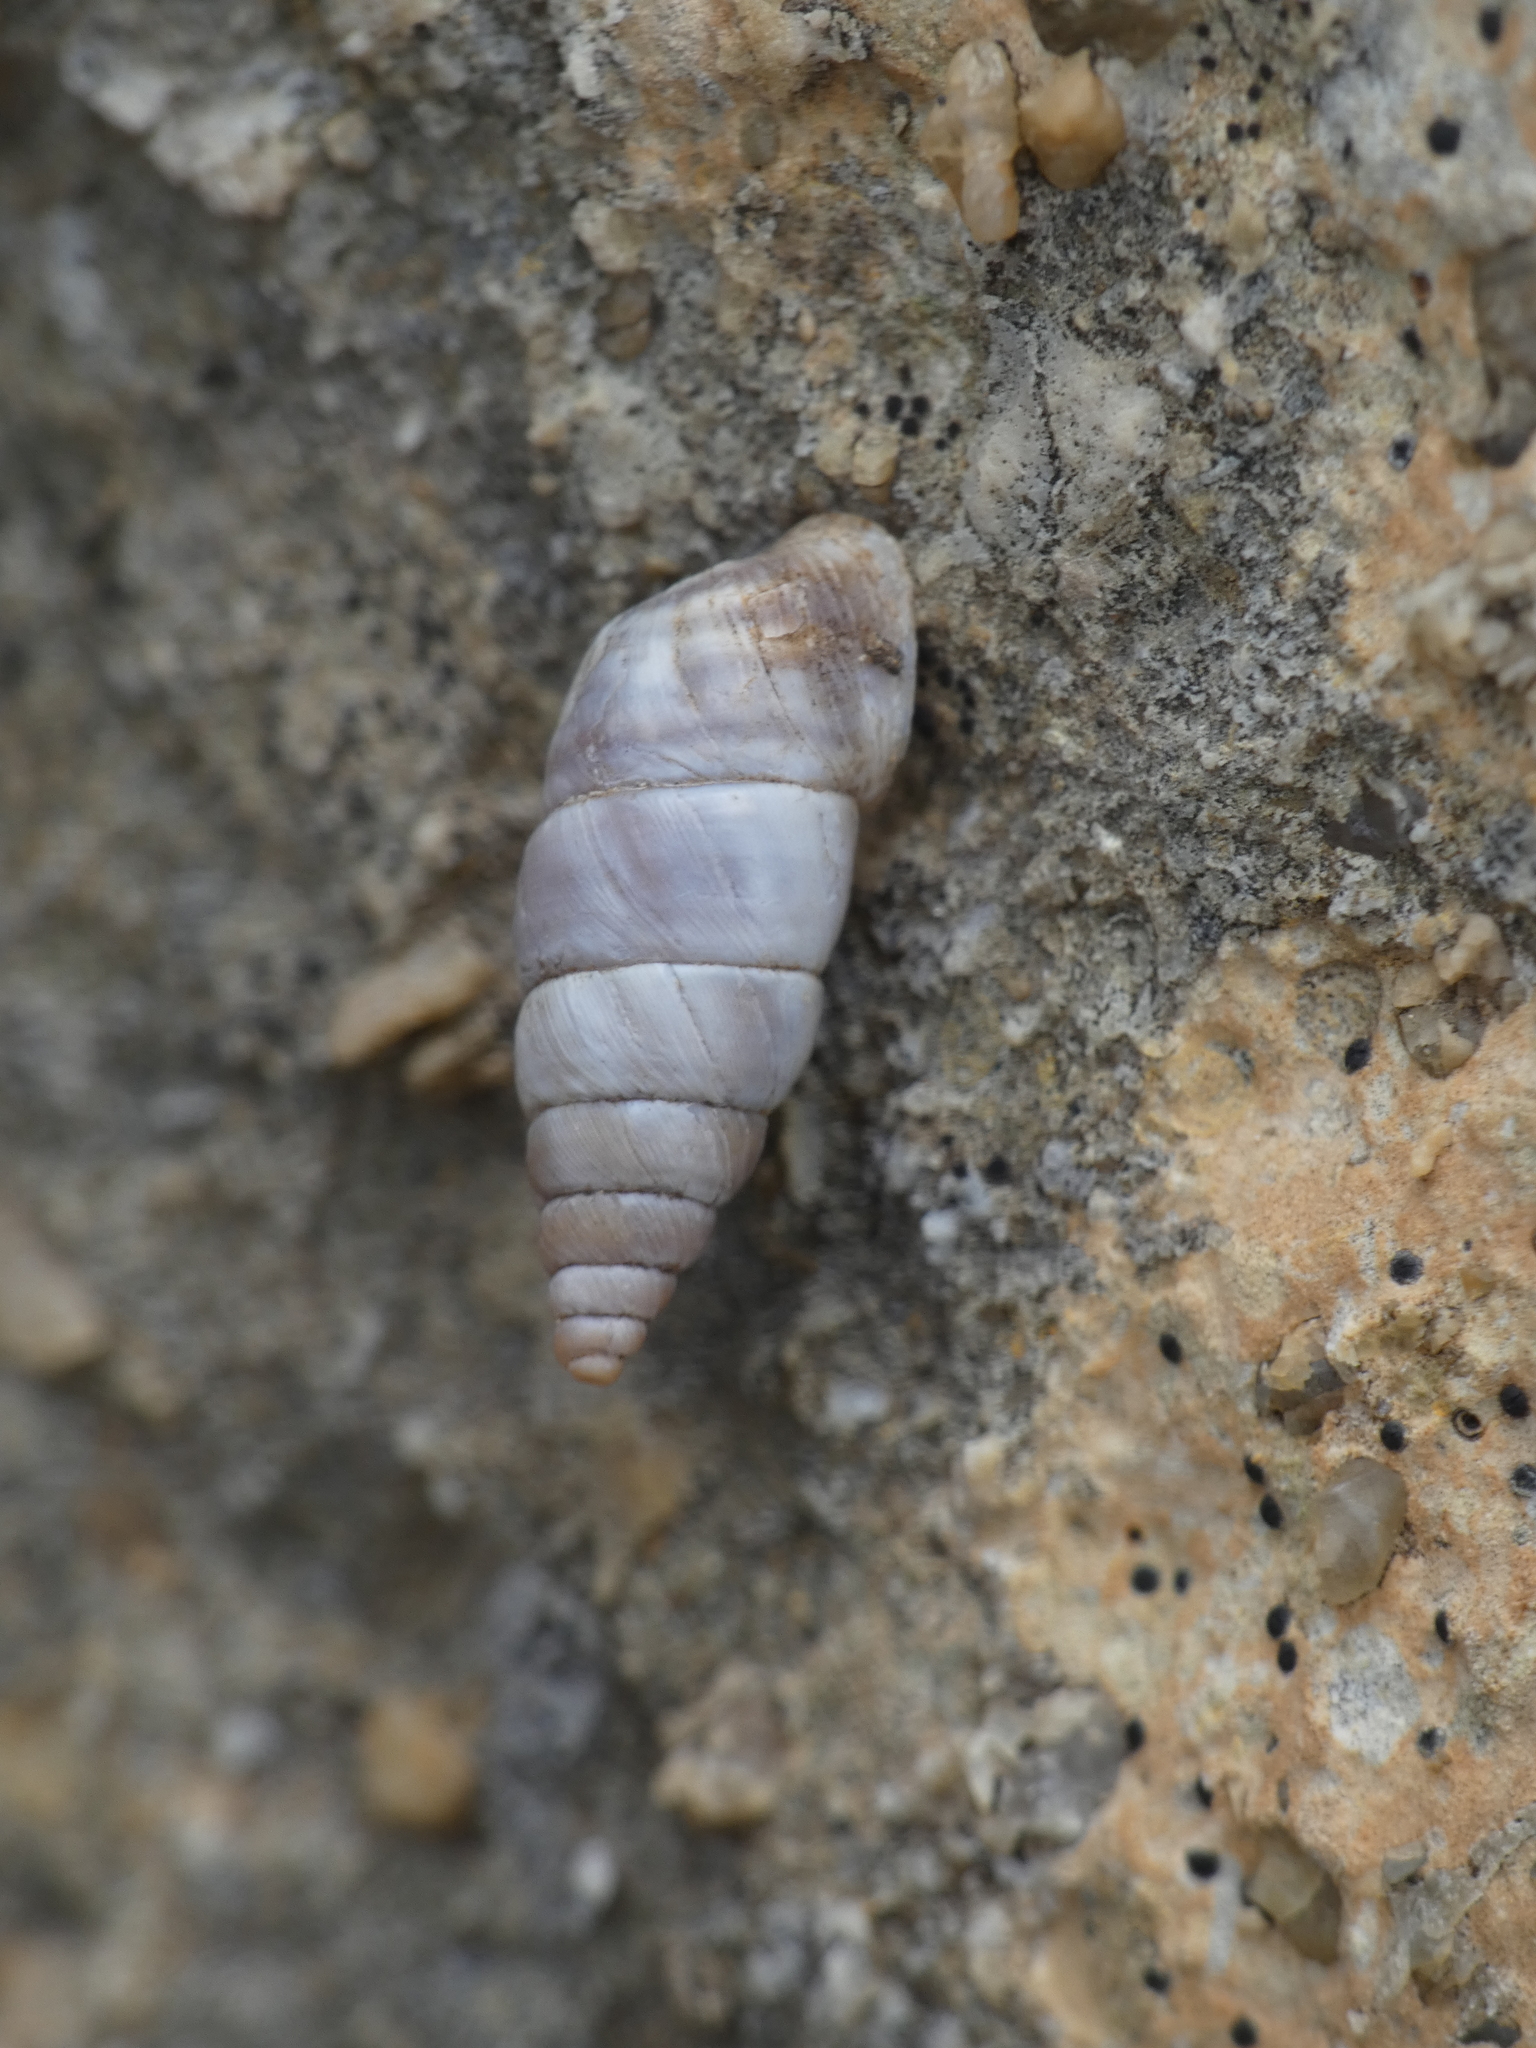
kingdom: Animalia
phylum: Mollusca
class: Gastropoda
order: Stylommatophora
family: Chondrinidae
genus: Solatopupa
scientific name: Solatopupa similis
